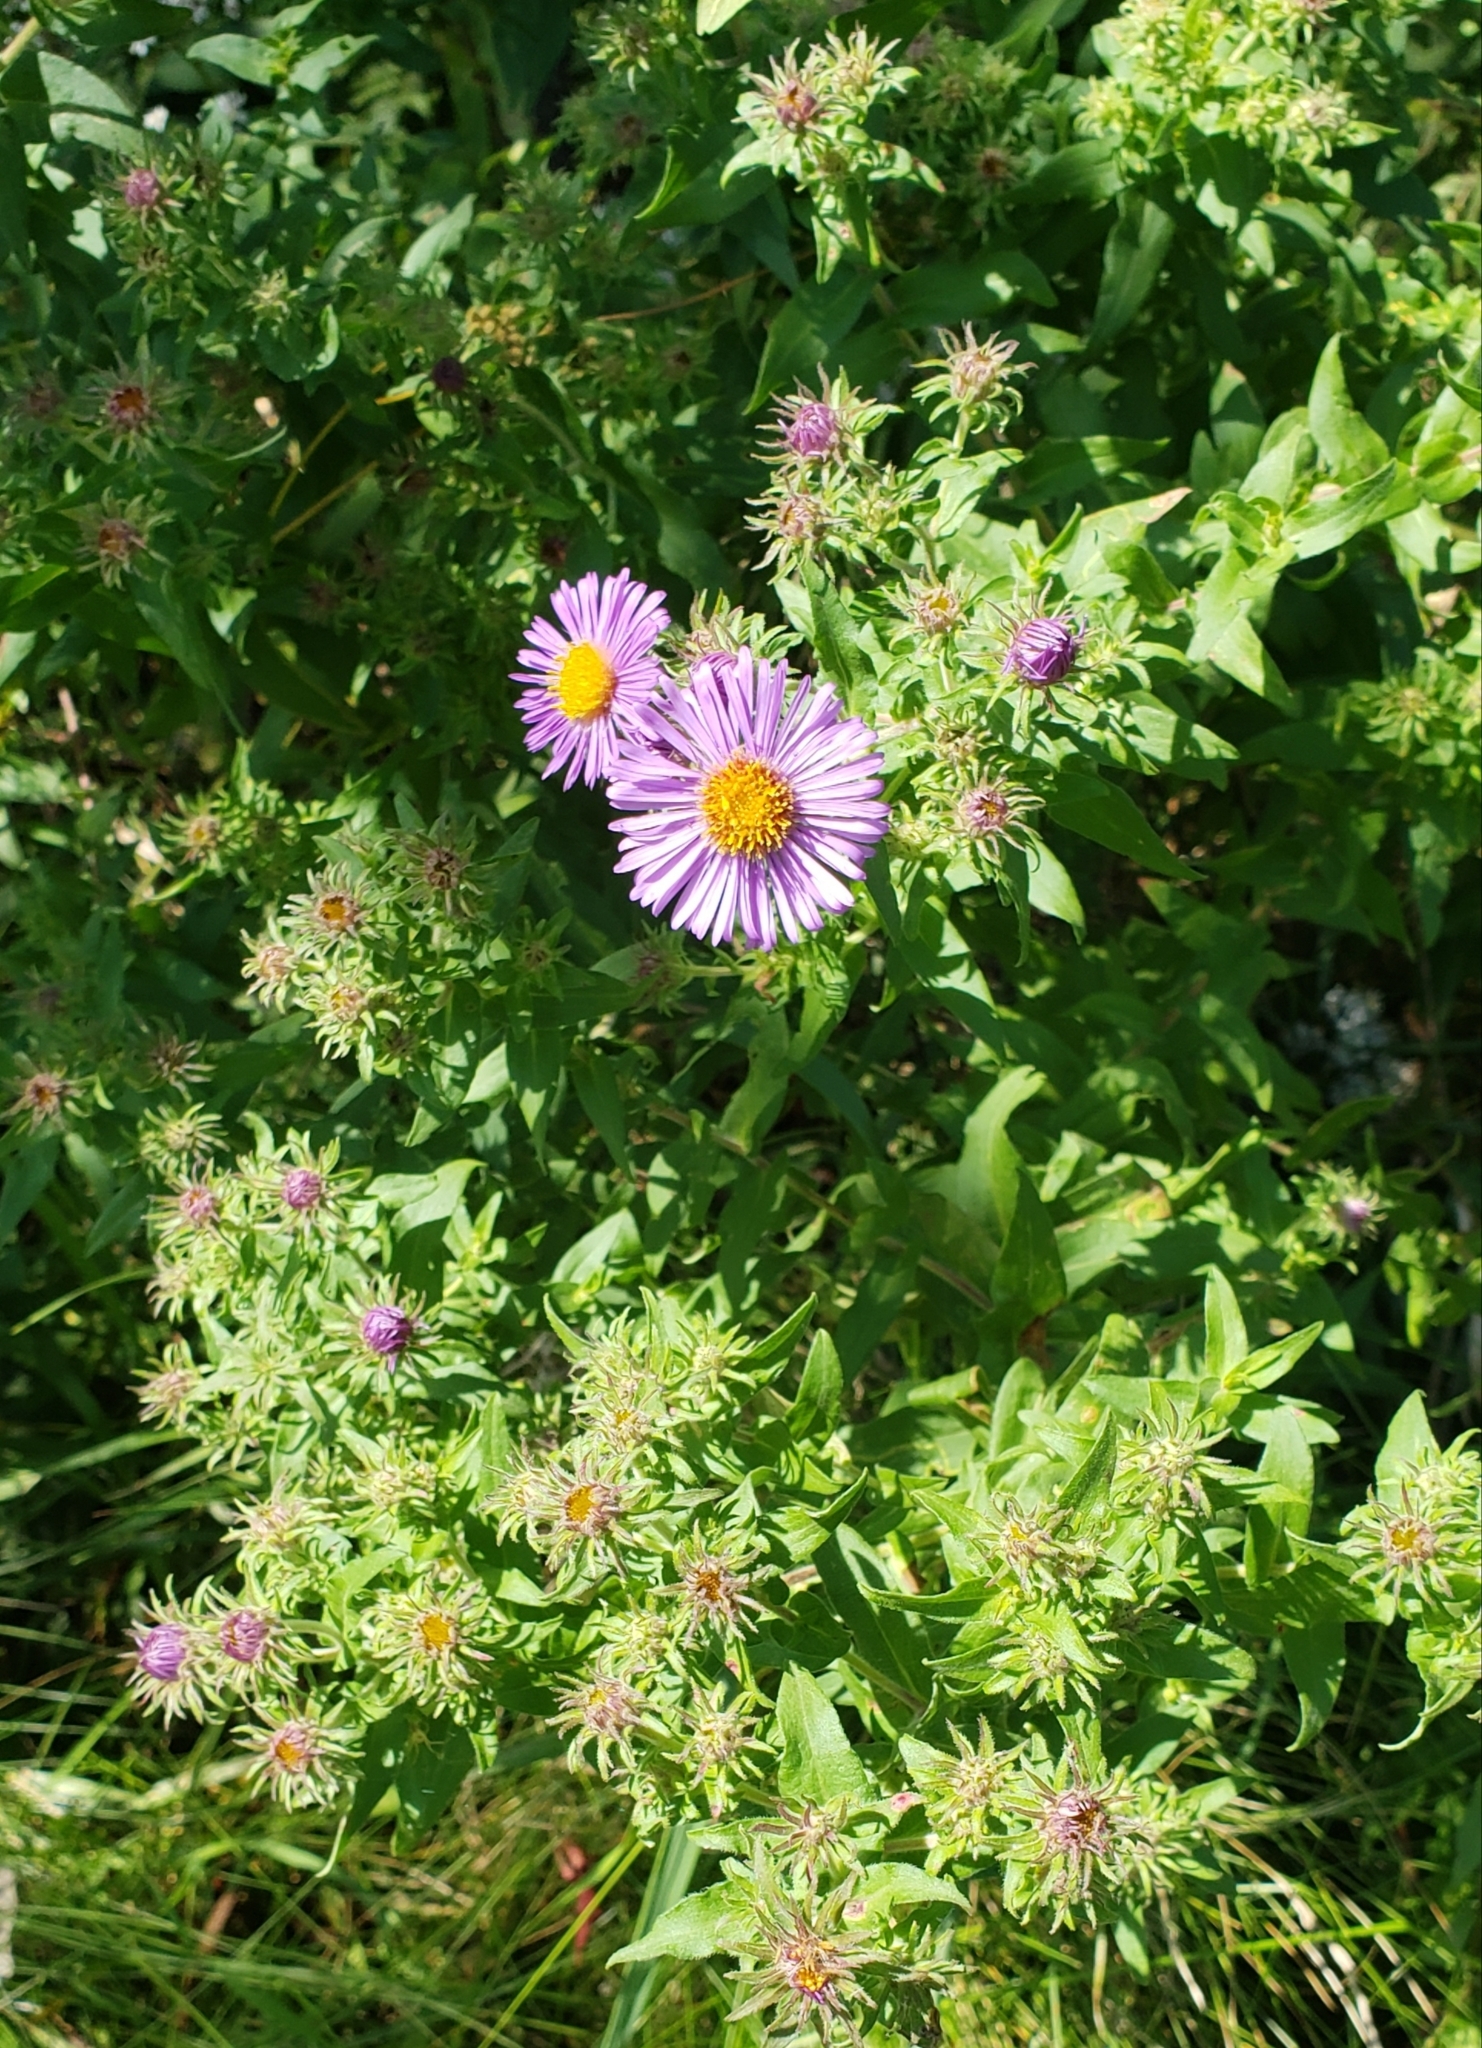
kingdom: Plantae
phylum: Tracheophyta
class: Magnoliopsida
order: Asterales
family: Asteraceae
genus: Symphyotrichum
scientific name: Symphyotrichum novae-angliae
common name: Michaelmas daisy
